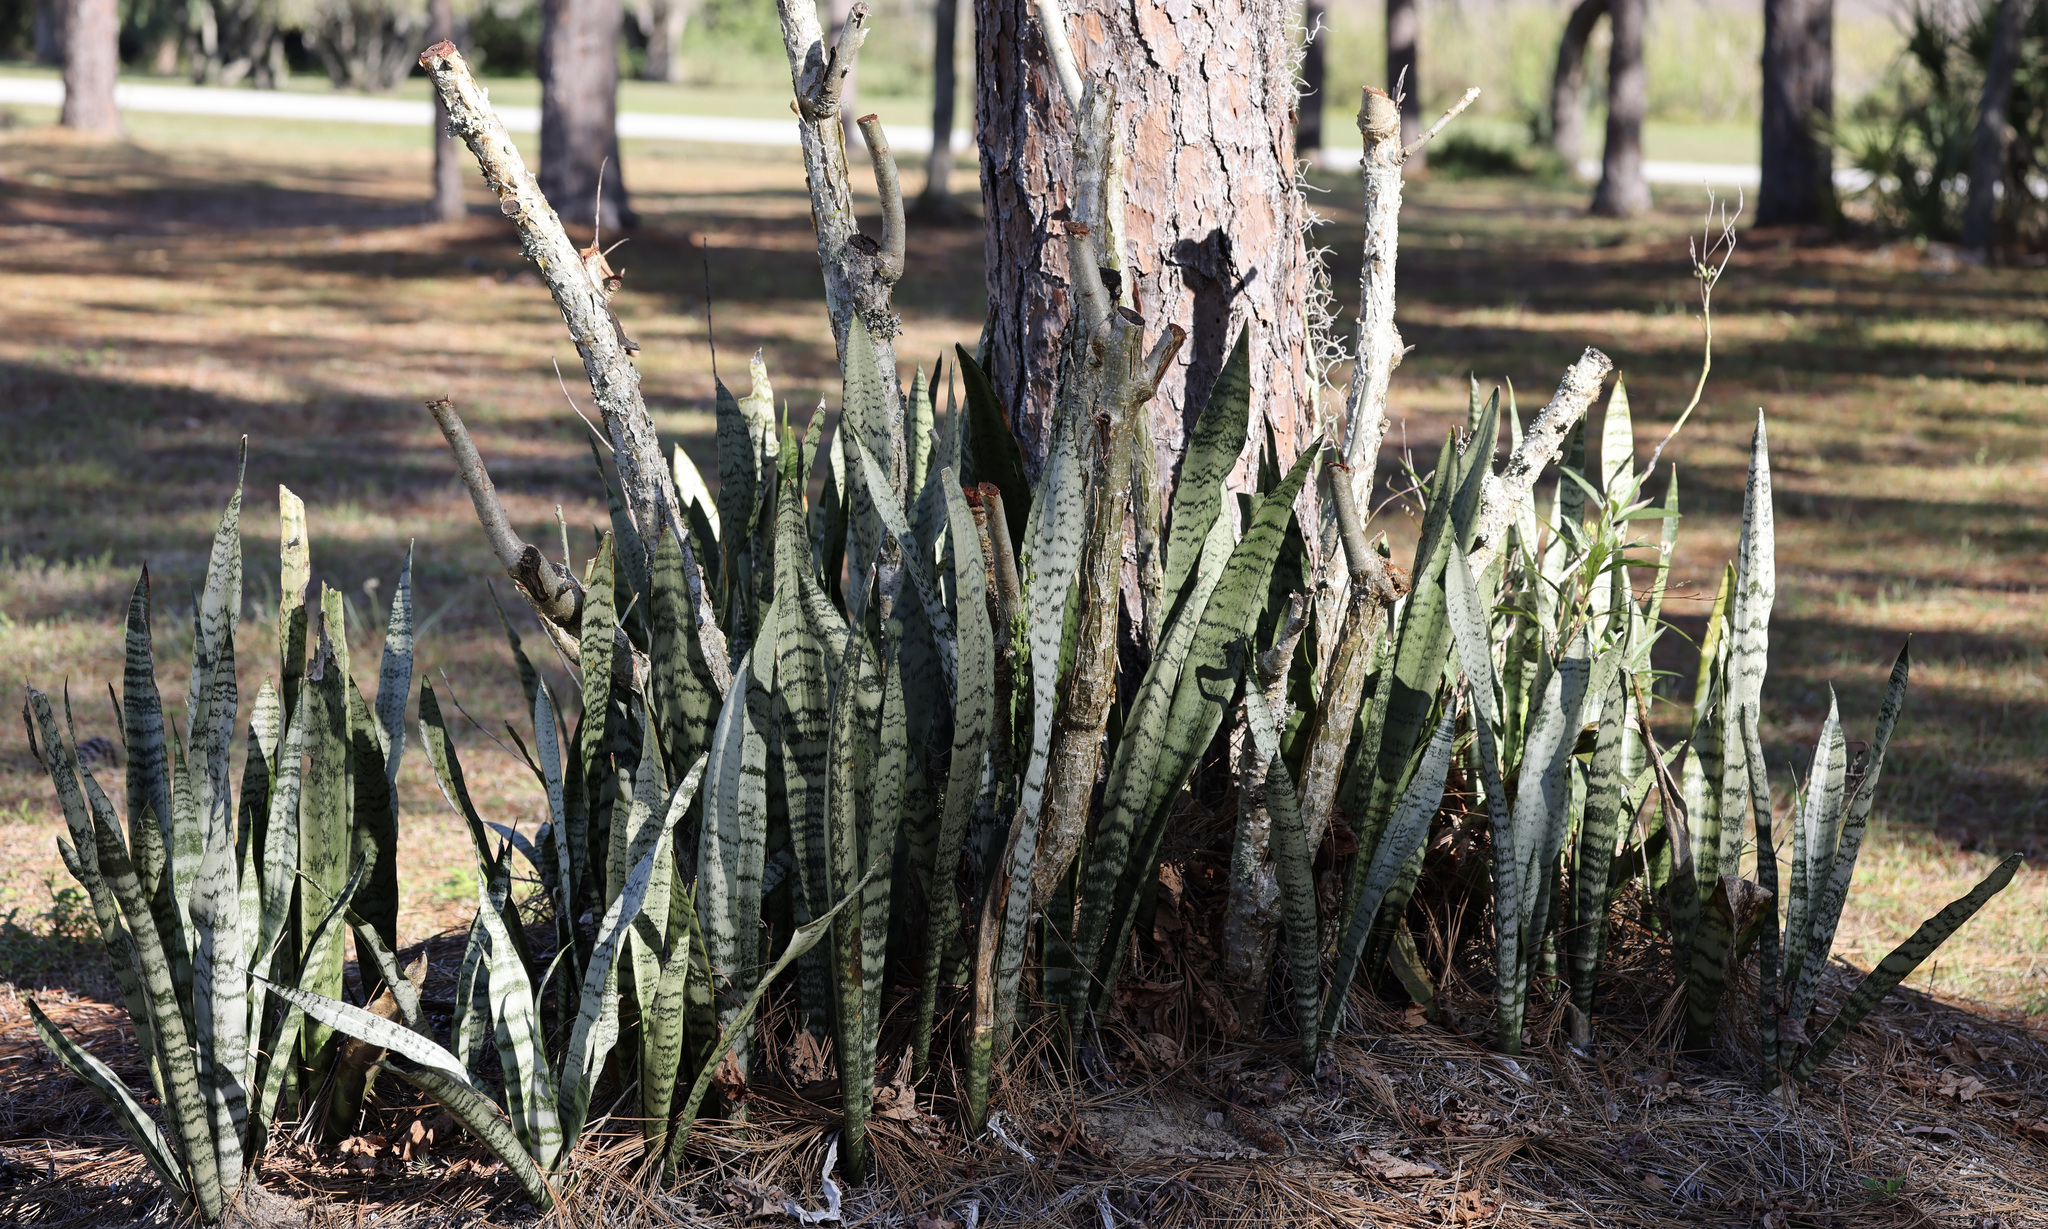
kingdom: Plantae
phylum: Tracheophyta
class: Liliopsida
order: Asparagales
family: Asparagaceae
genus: Dracaena
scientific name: Dracaena hyacinthoides
